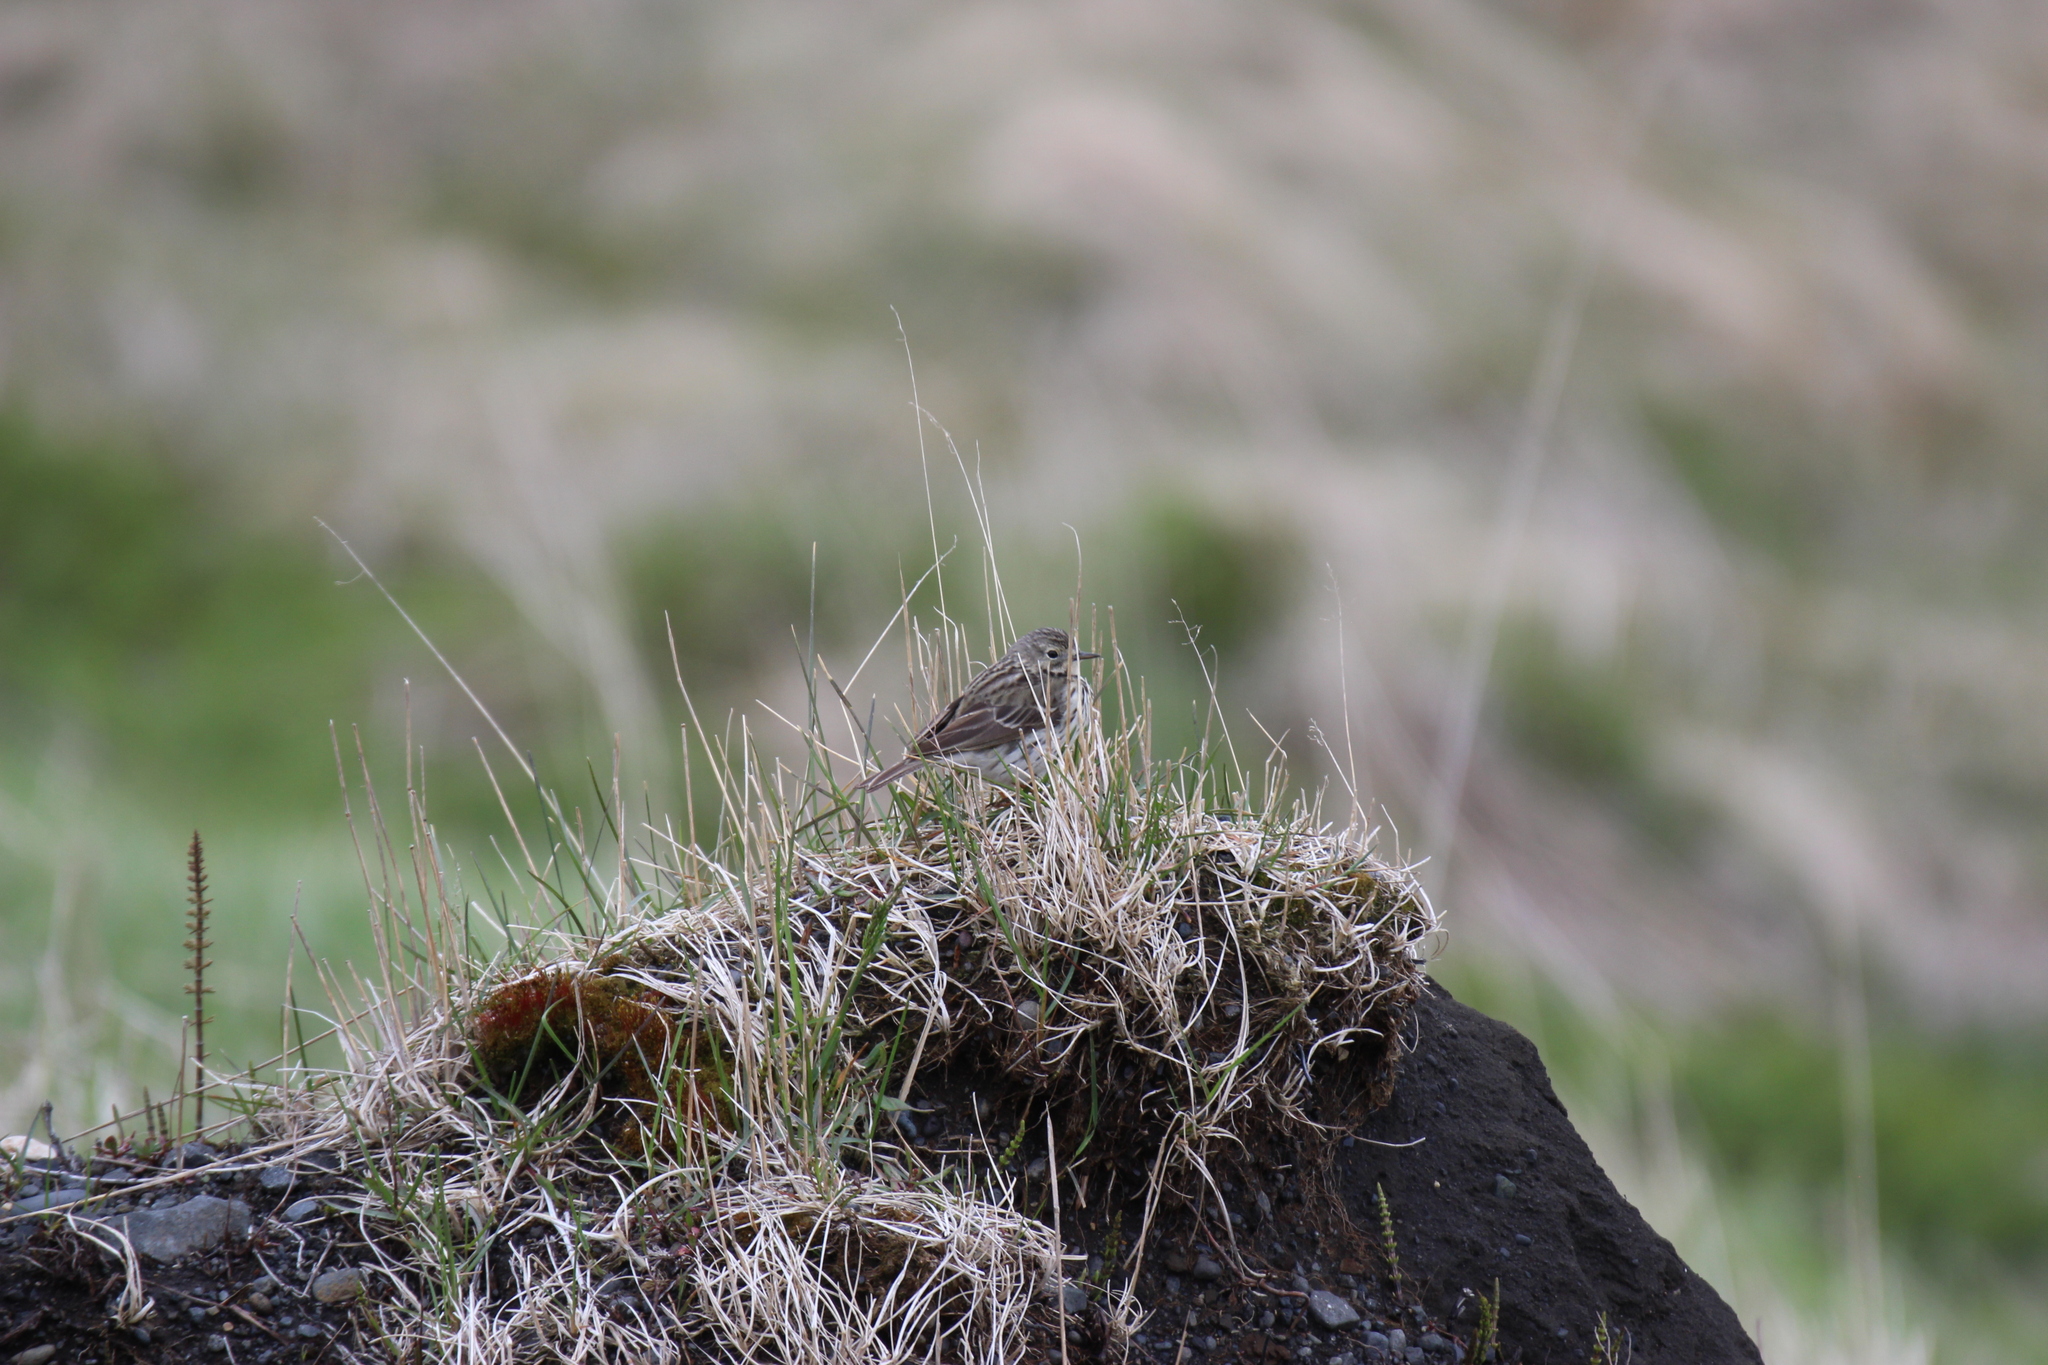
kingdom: Animalia
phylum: Chordata
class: Aves
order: Passeriformes
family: Motacillidae
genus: Anthus
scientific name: Anthus pratensis
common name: Meadow pipit
